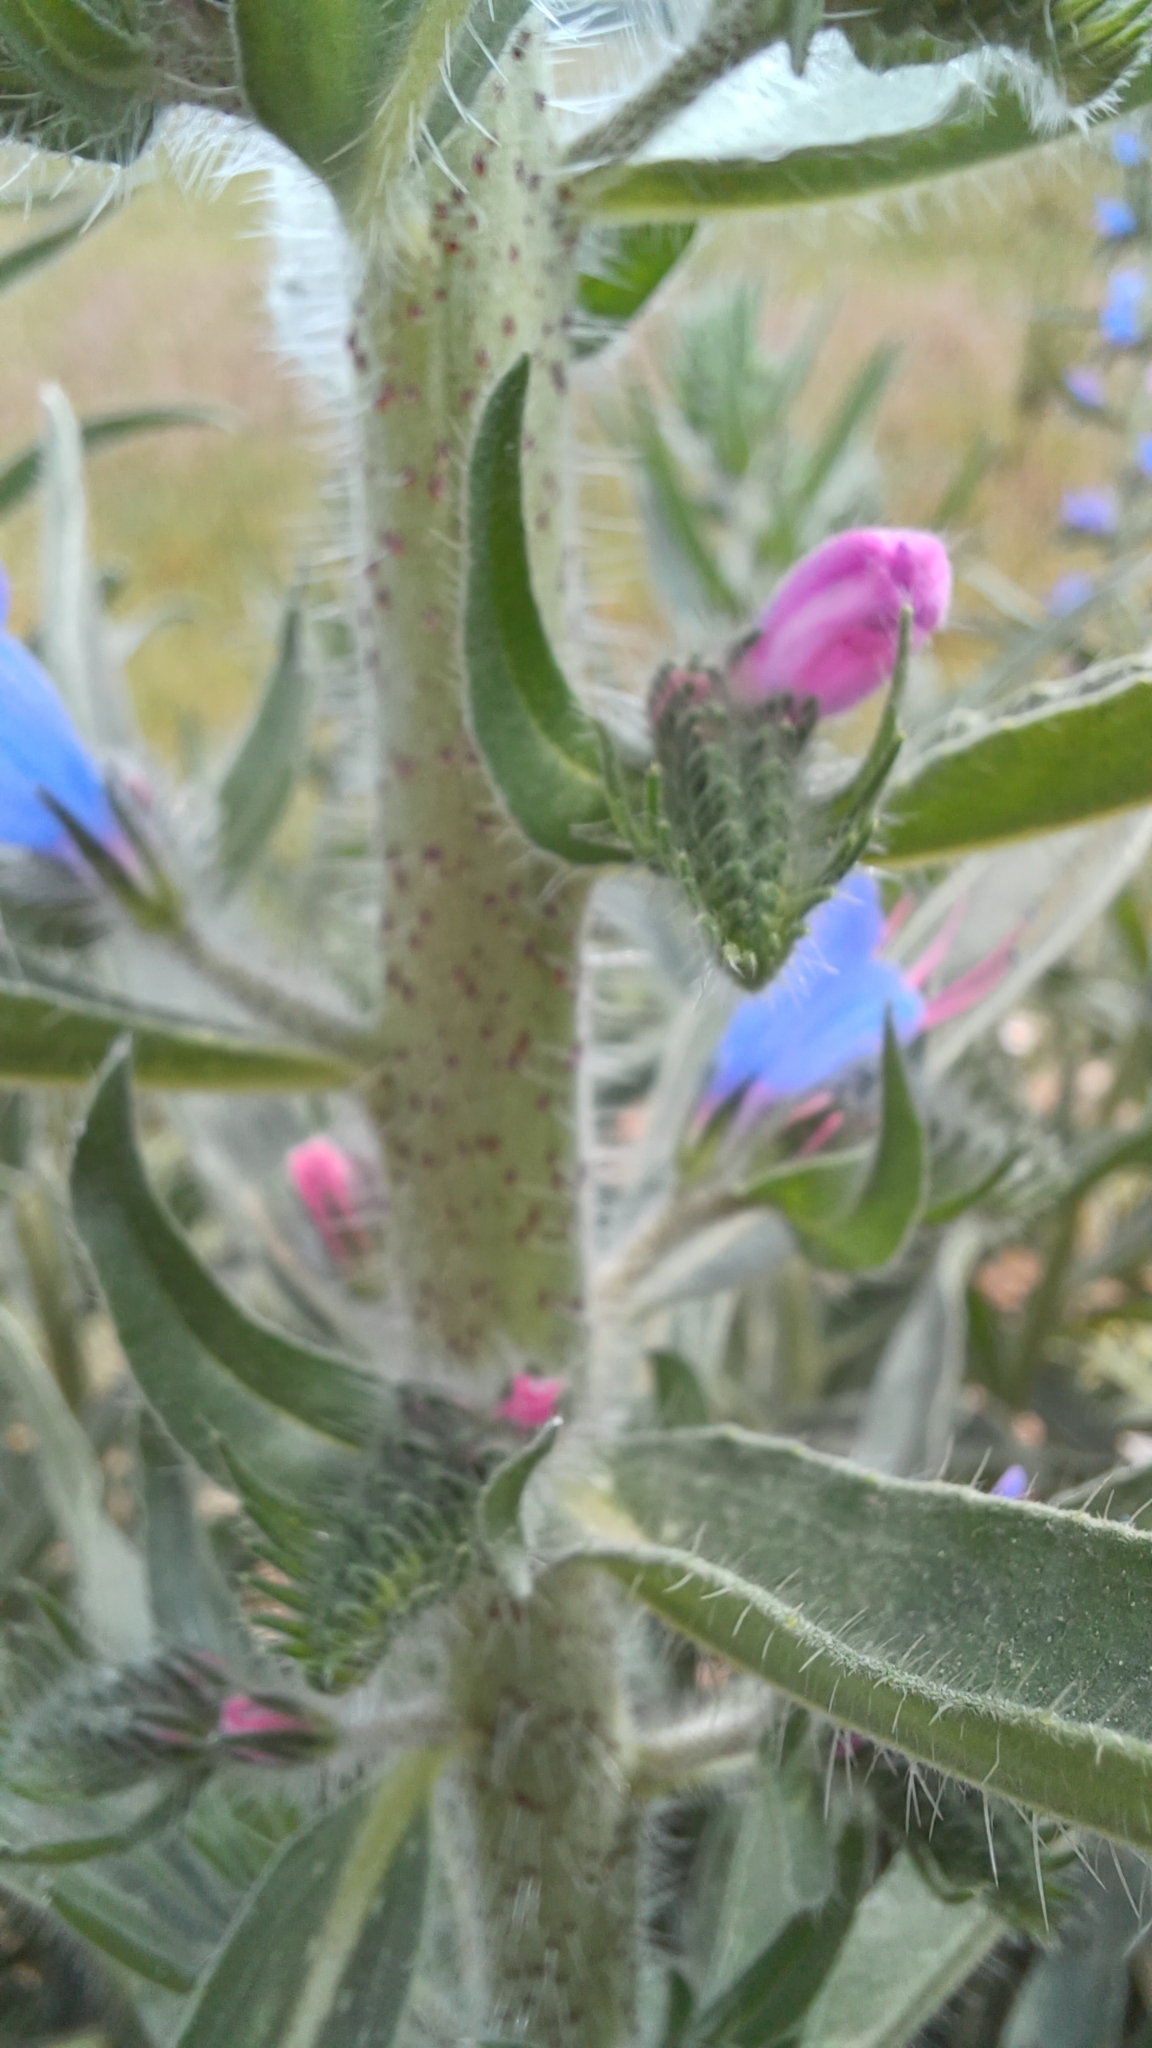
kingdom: Plantae
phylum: Tracheophyta
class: Magnoliopsida
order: Boraginales
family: Boraginaceae
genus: Echium
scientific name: Echium vulgare
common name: Common viper's bugloss
